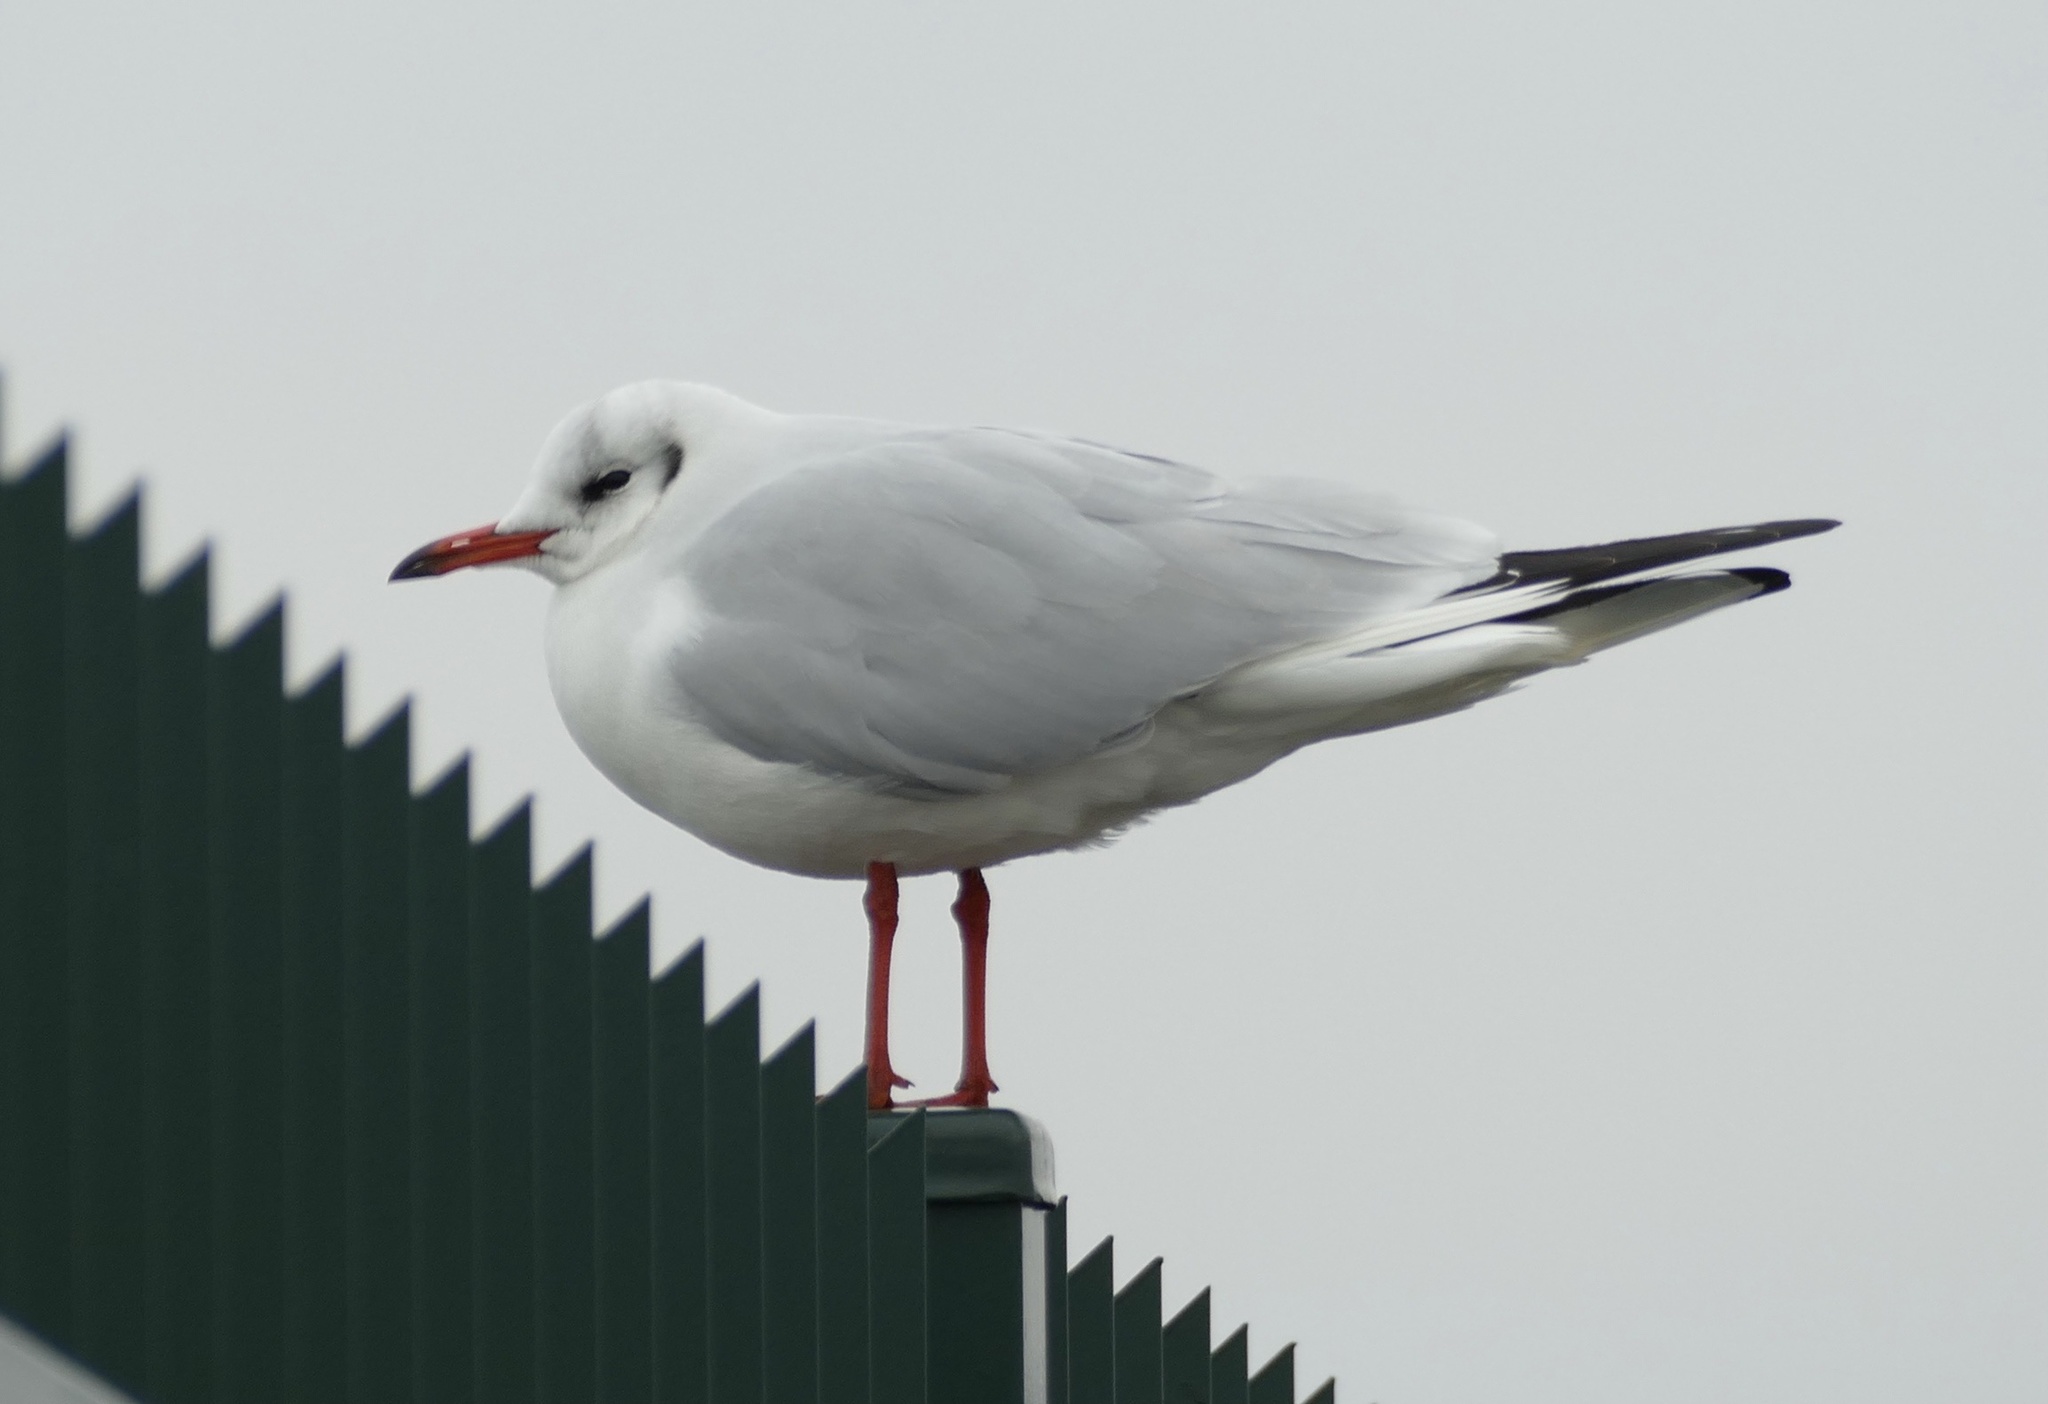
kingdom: Animalia
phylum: Chordata
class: Aves
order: Charadriiformes
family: Laridae
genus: Chroicocephalus
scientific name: Chroicocephalus ridibundus
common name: Black-headed gull
